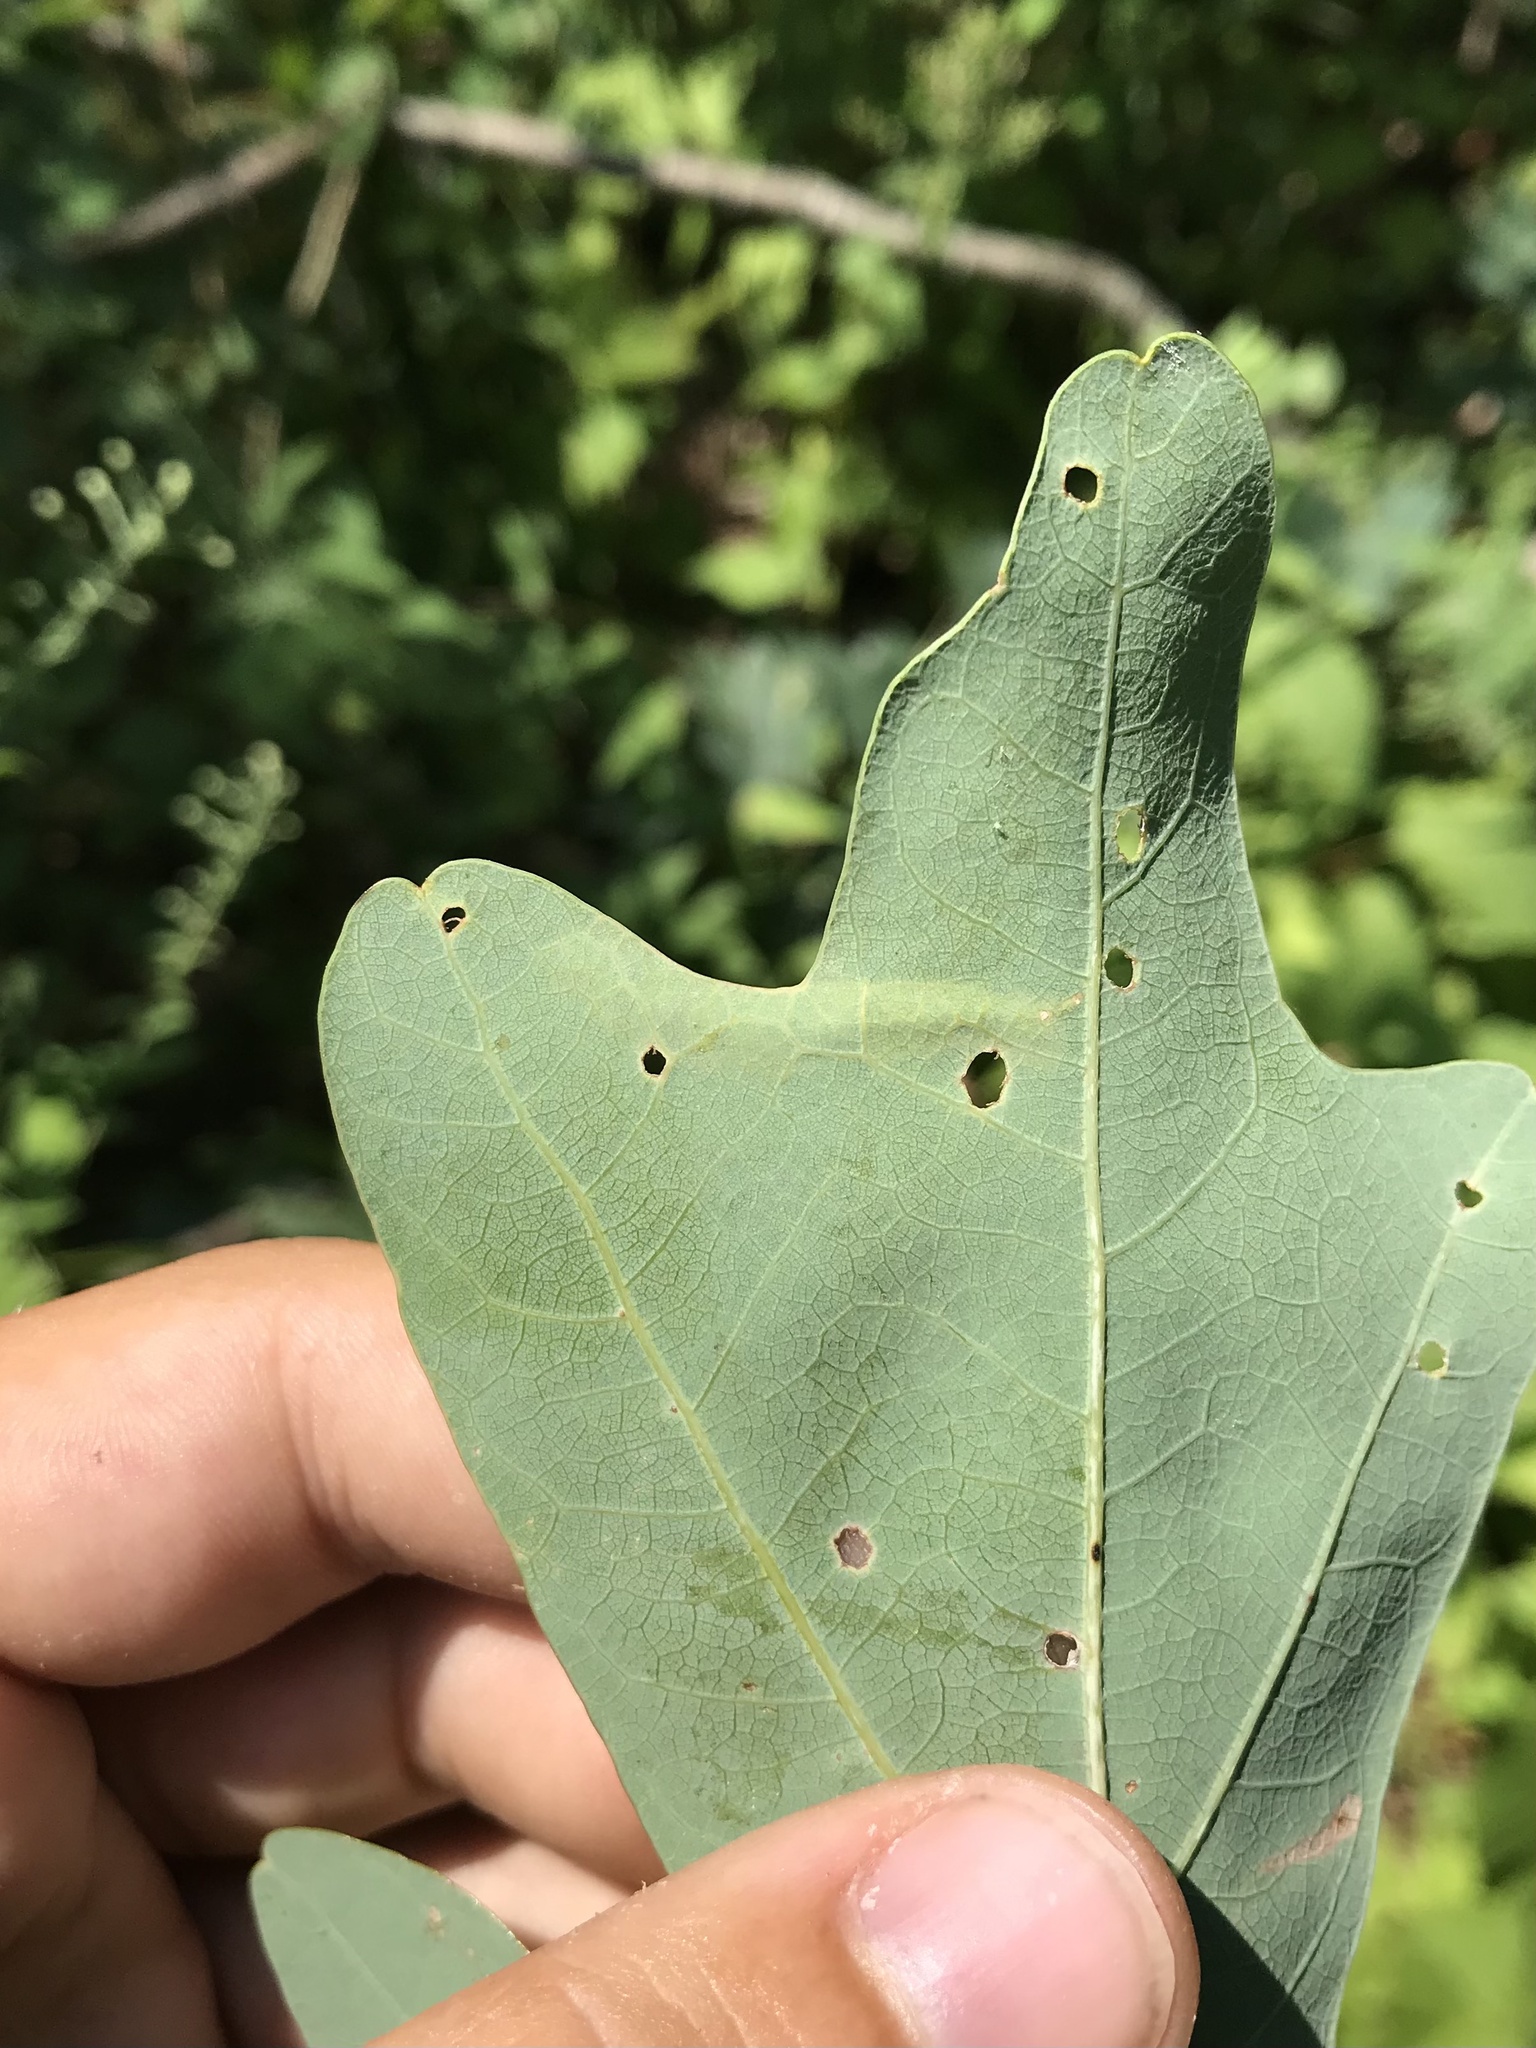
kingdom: Animalia
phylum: Arthropoda
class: Insecta
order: Lepidoptera
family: Tischeriidae
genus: Coptotriche
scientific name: Coptotriche badiiella
